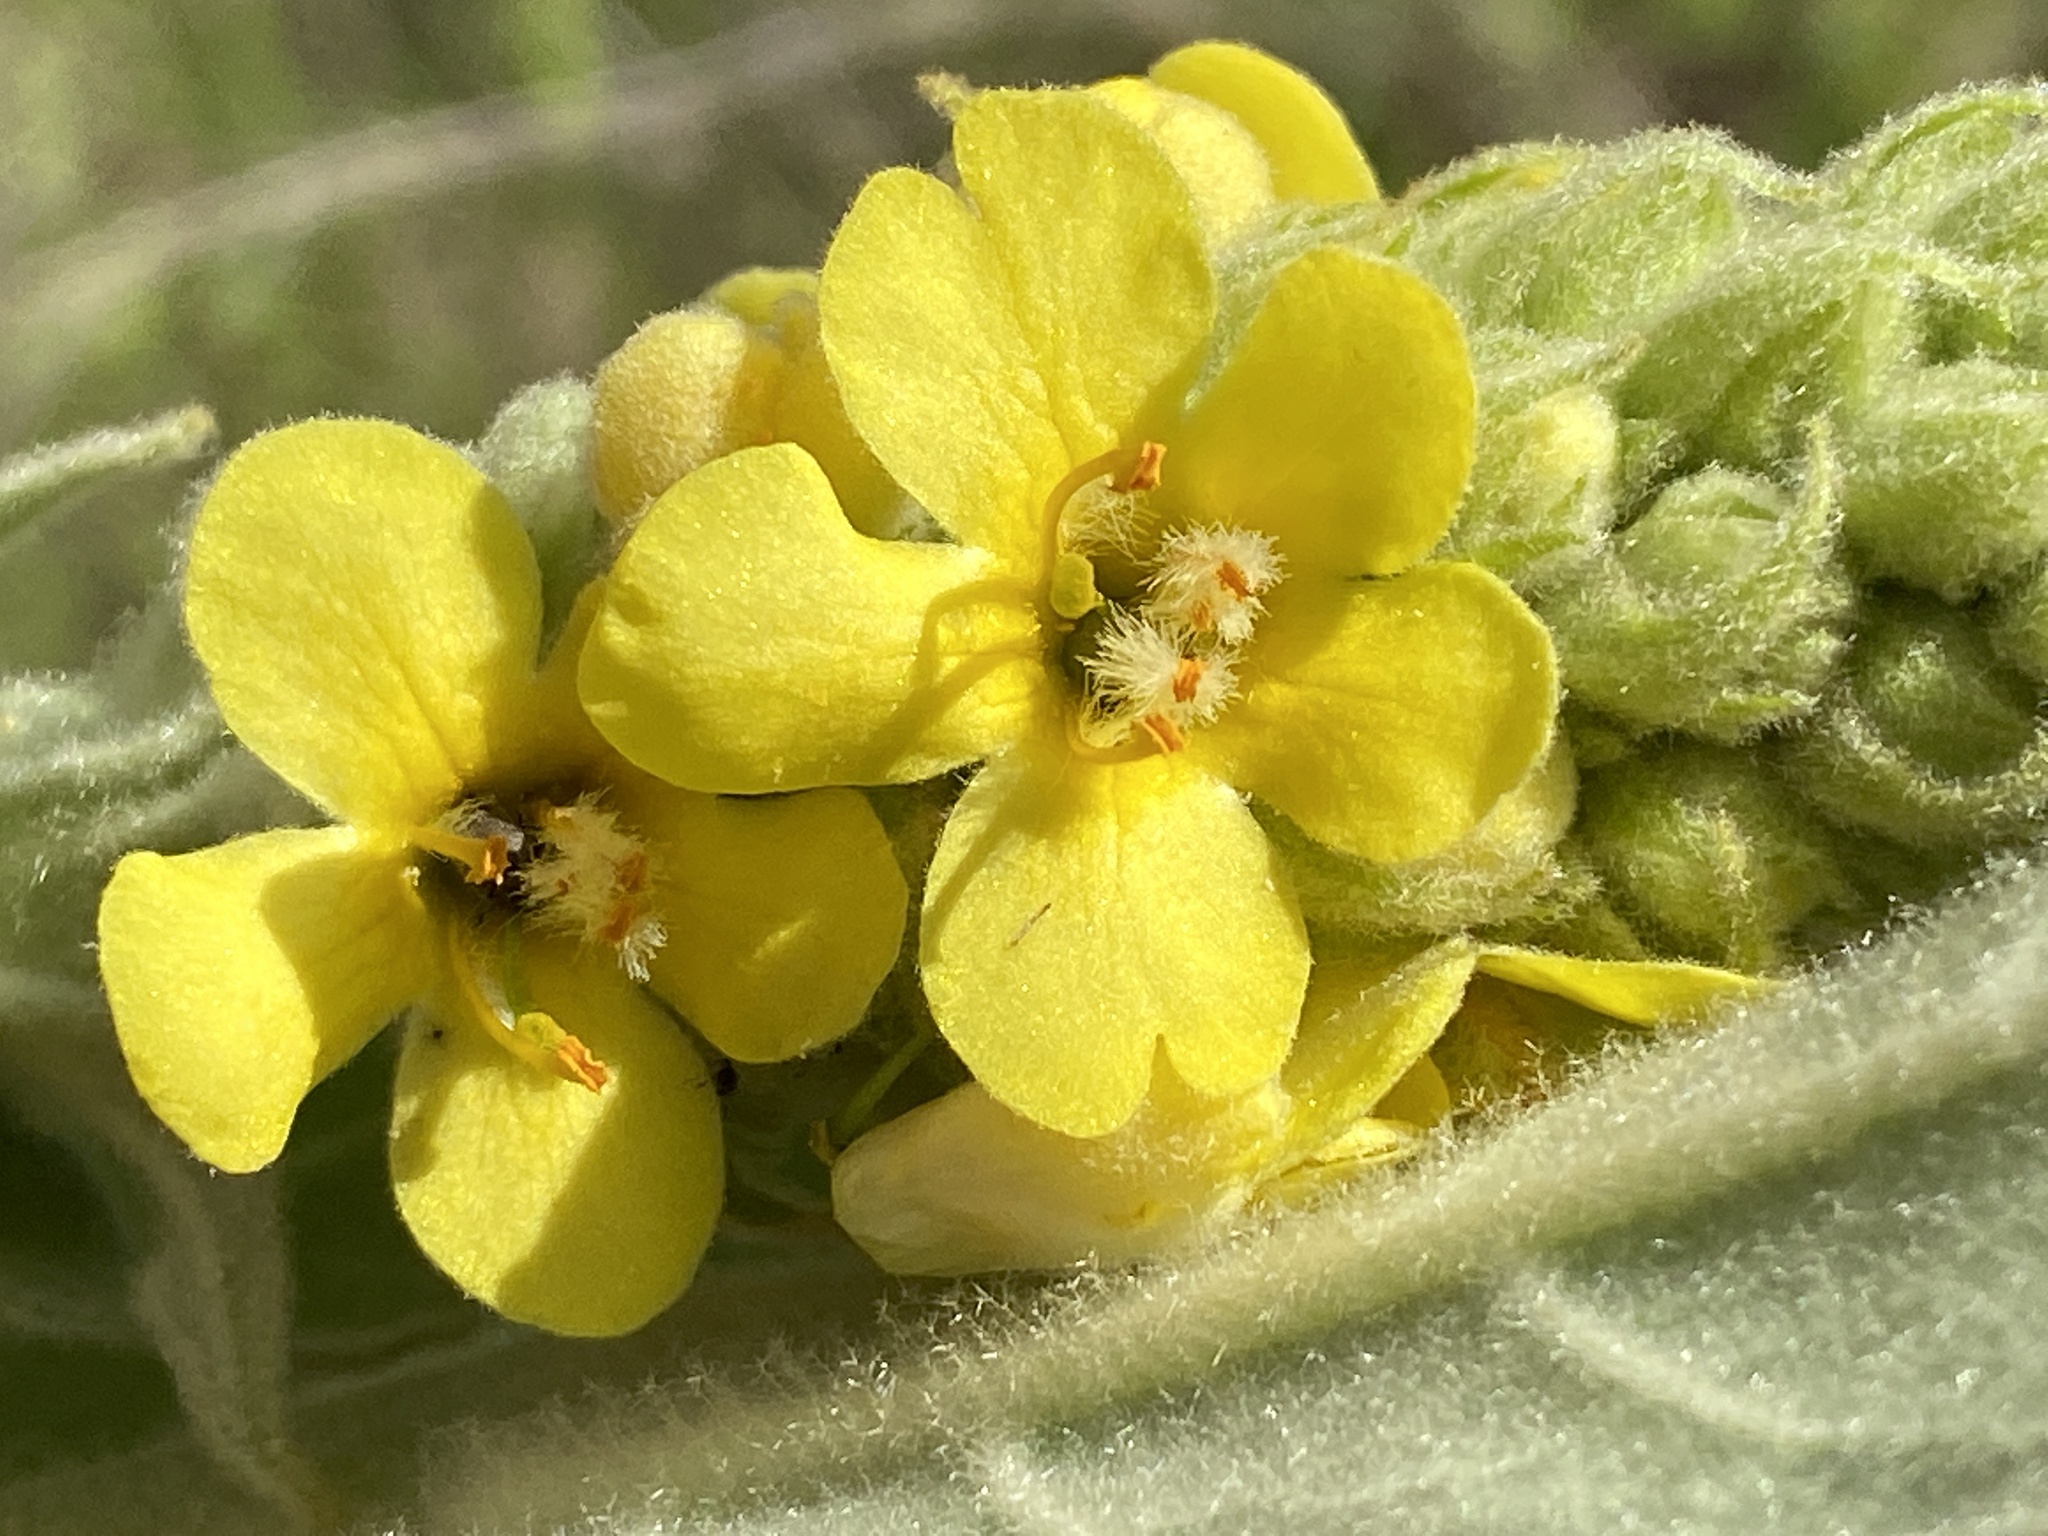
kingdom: Plantae
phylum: Tracheophyta
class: Magnoliopsida
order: Lamiales
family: Scrophulariaceae
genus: Verbascum
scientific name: Verbascum thapsus
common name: Common mullein
